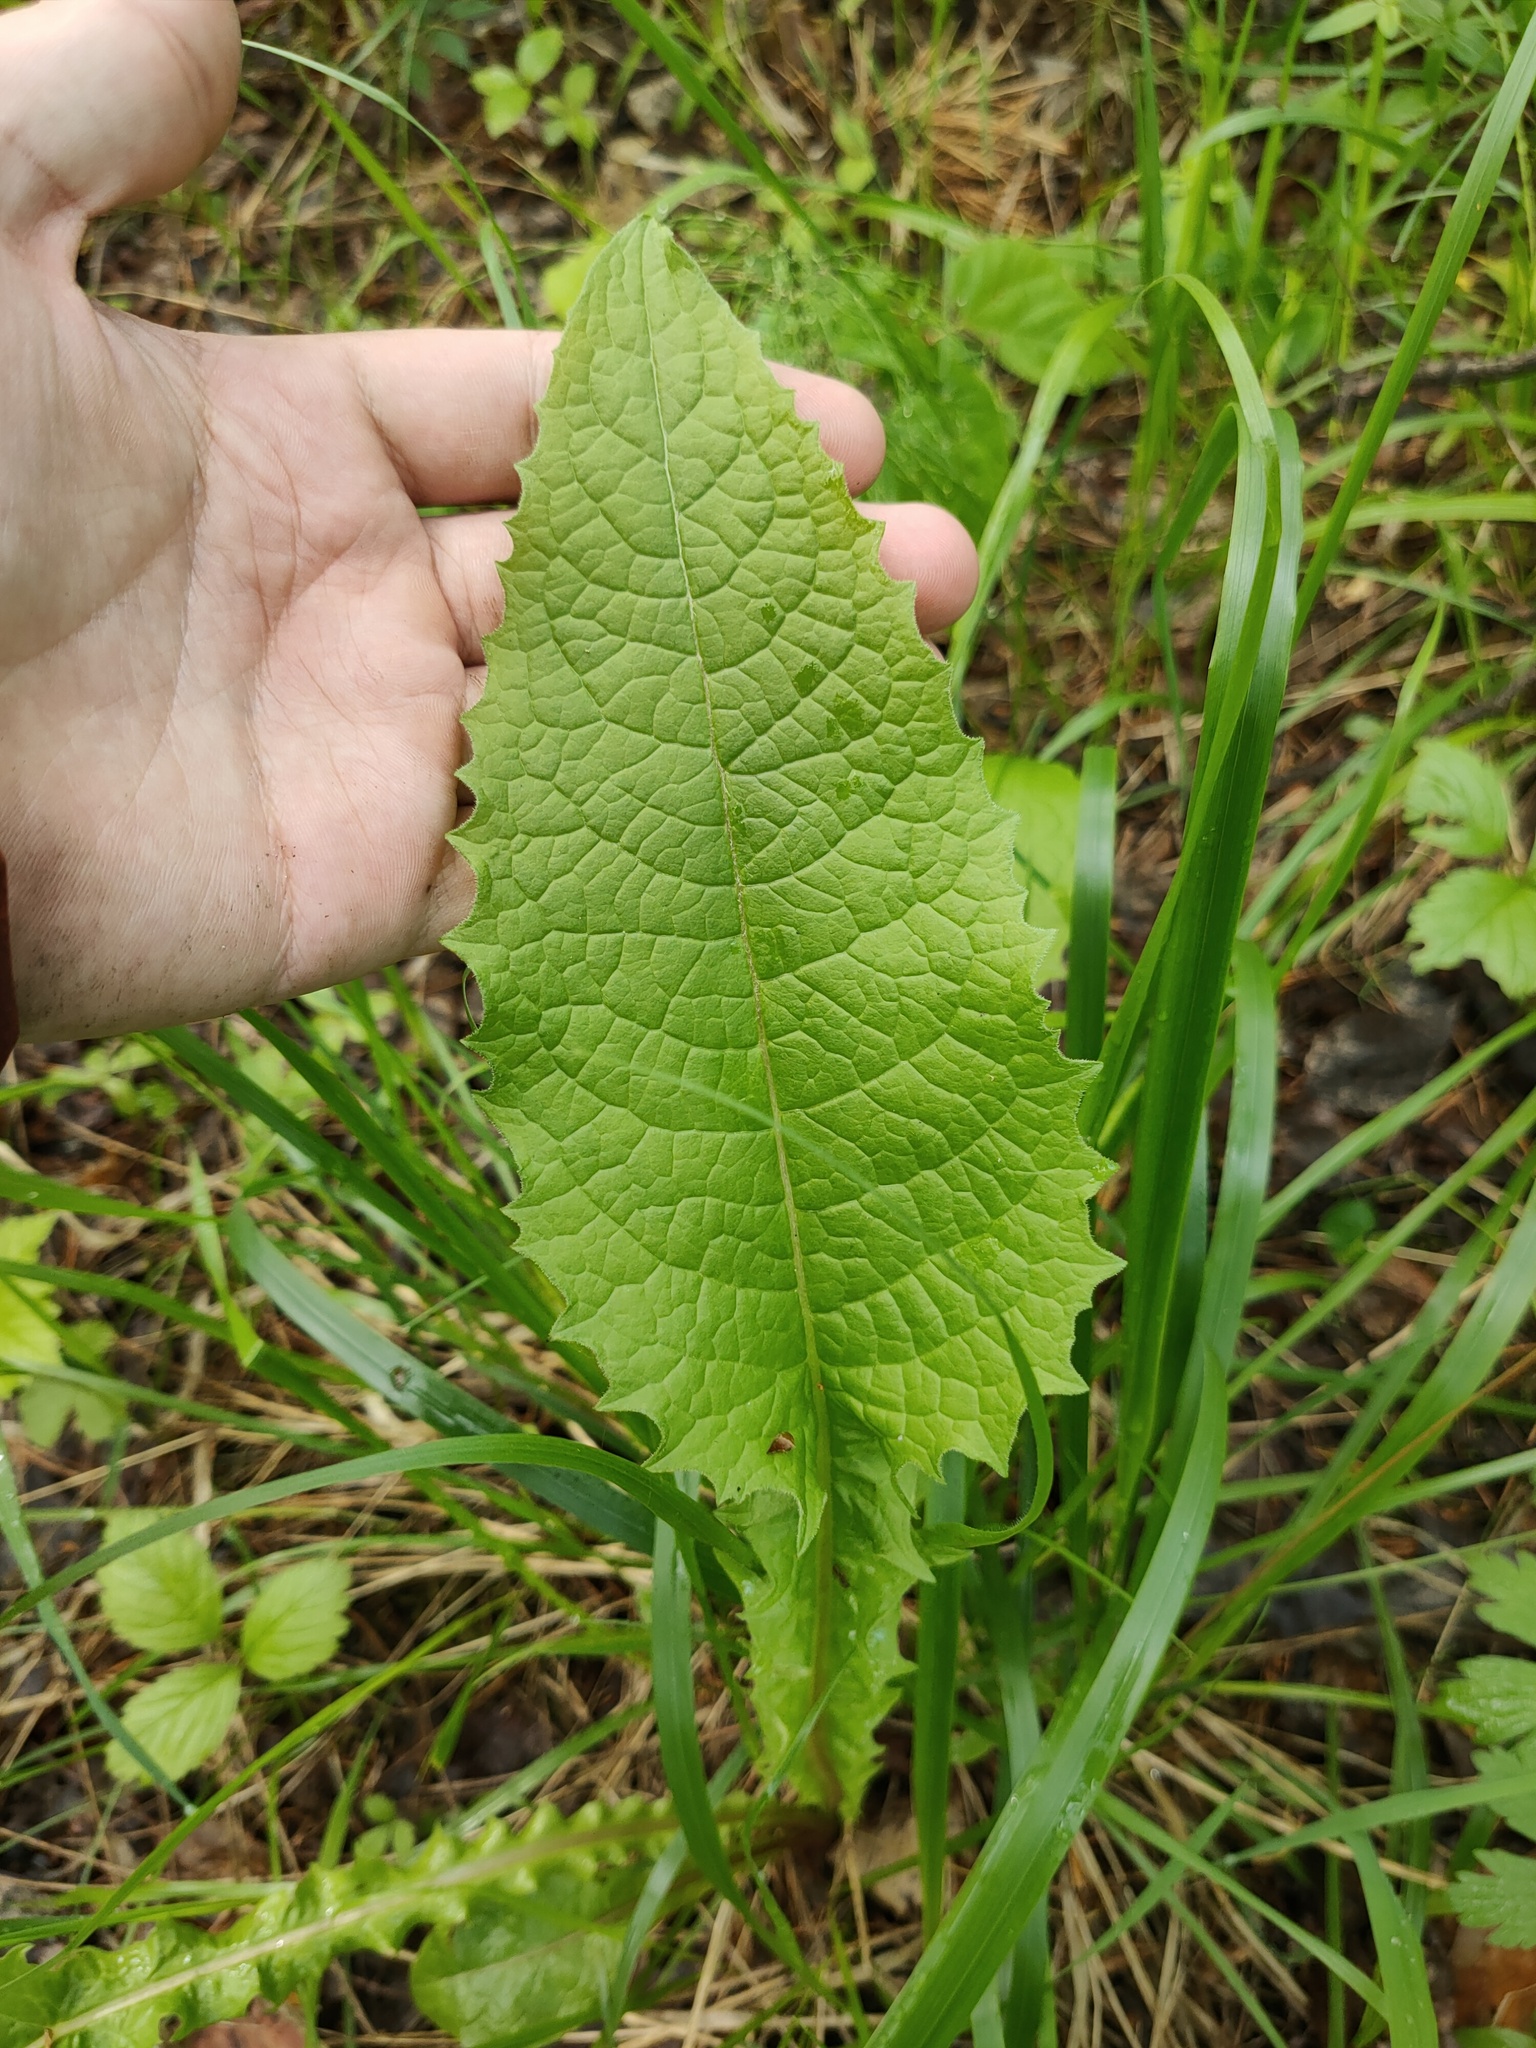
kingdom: Plantae
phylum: Tracheophyta
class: Magnoliopsida
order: Asterales
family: Asteraceae
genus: Crepis
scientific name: Crepis sibirica
